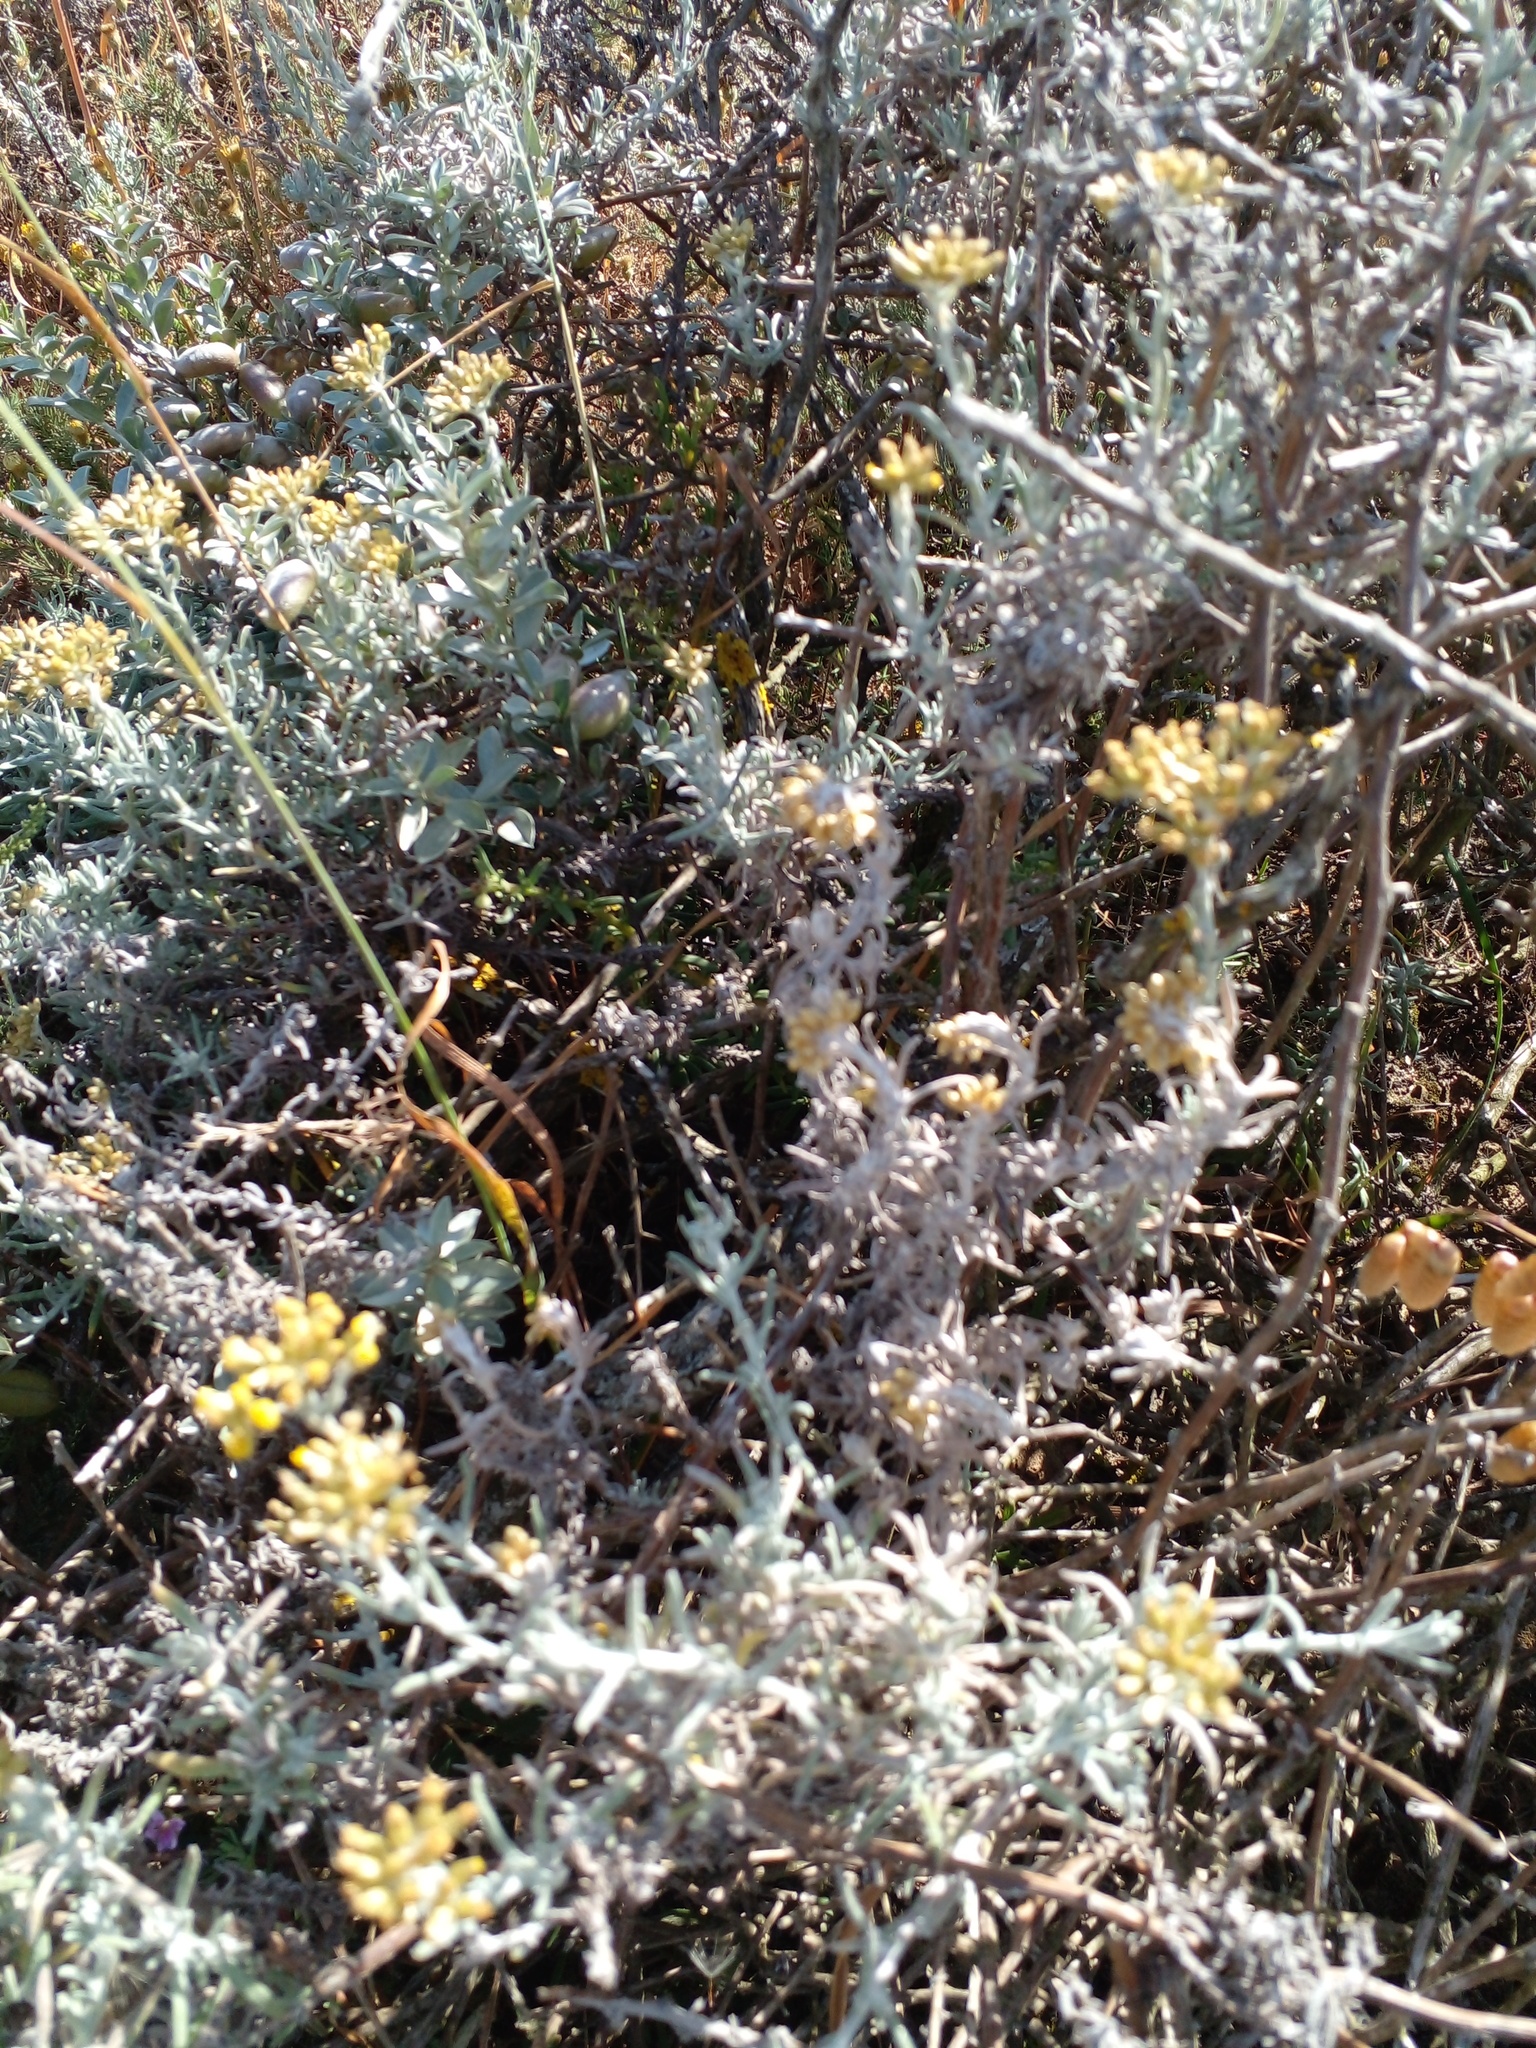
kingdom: Plantae
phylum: Tracheophyta
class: Magnoliopsida
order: Asterales
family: Asteraceae
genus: Helichrysum
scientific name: Helichrysum revolutum
